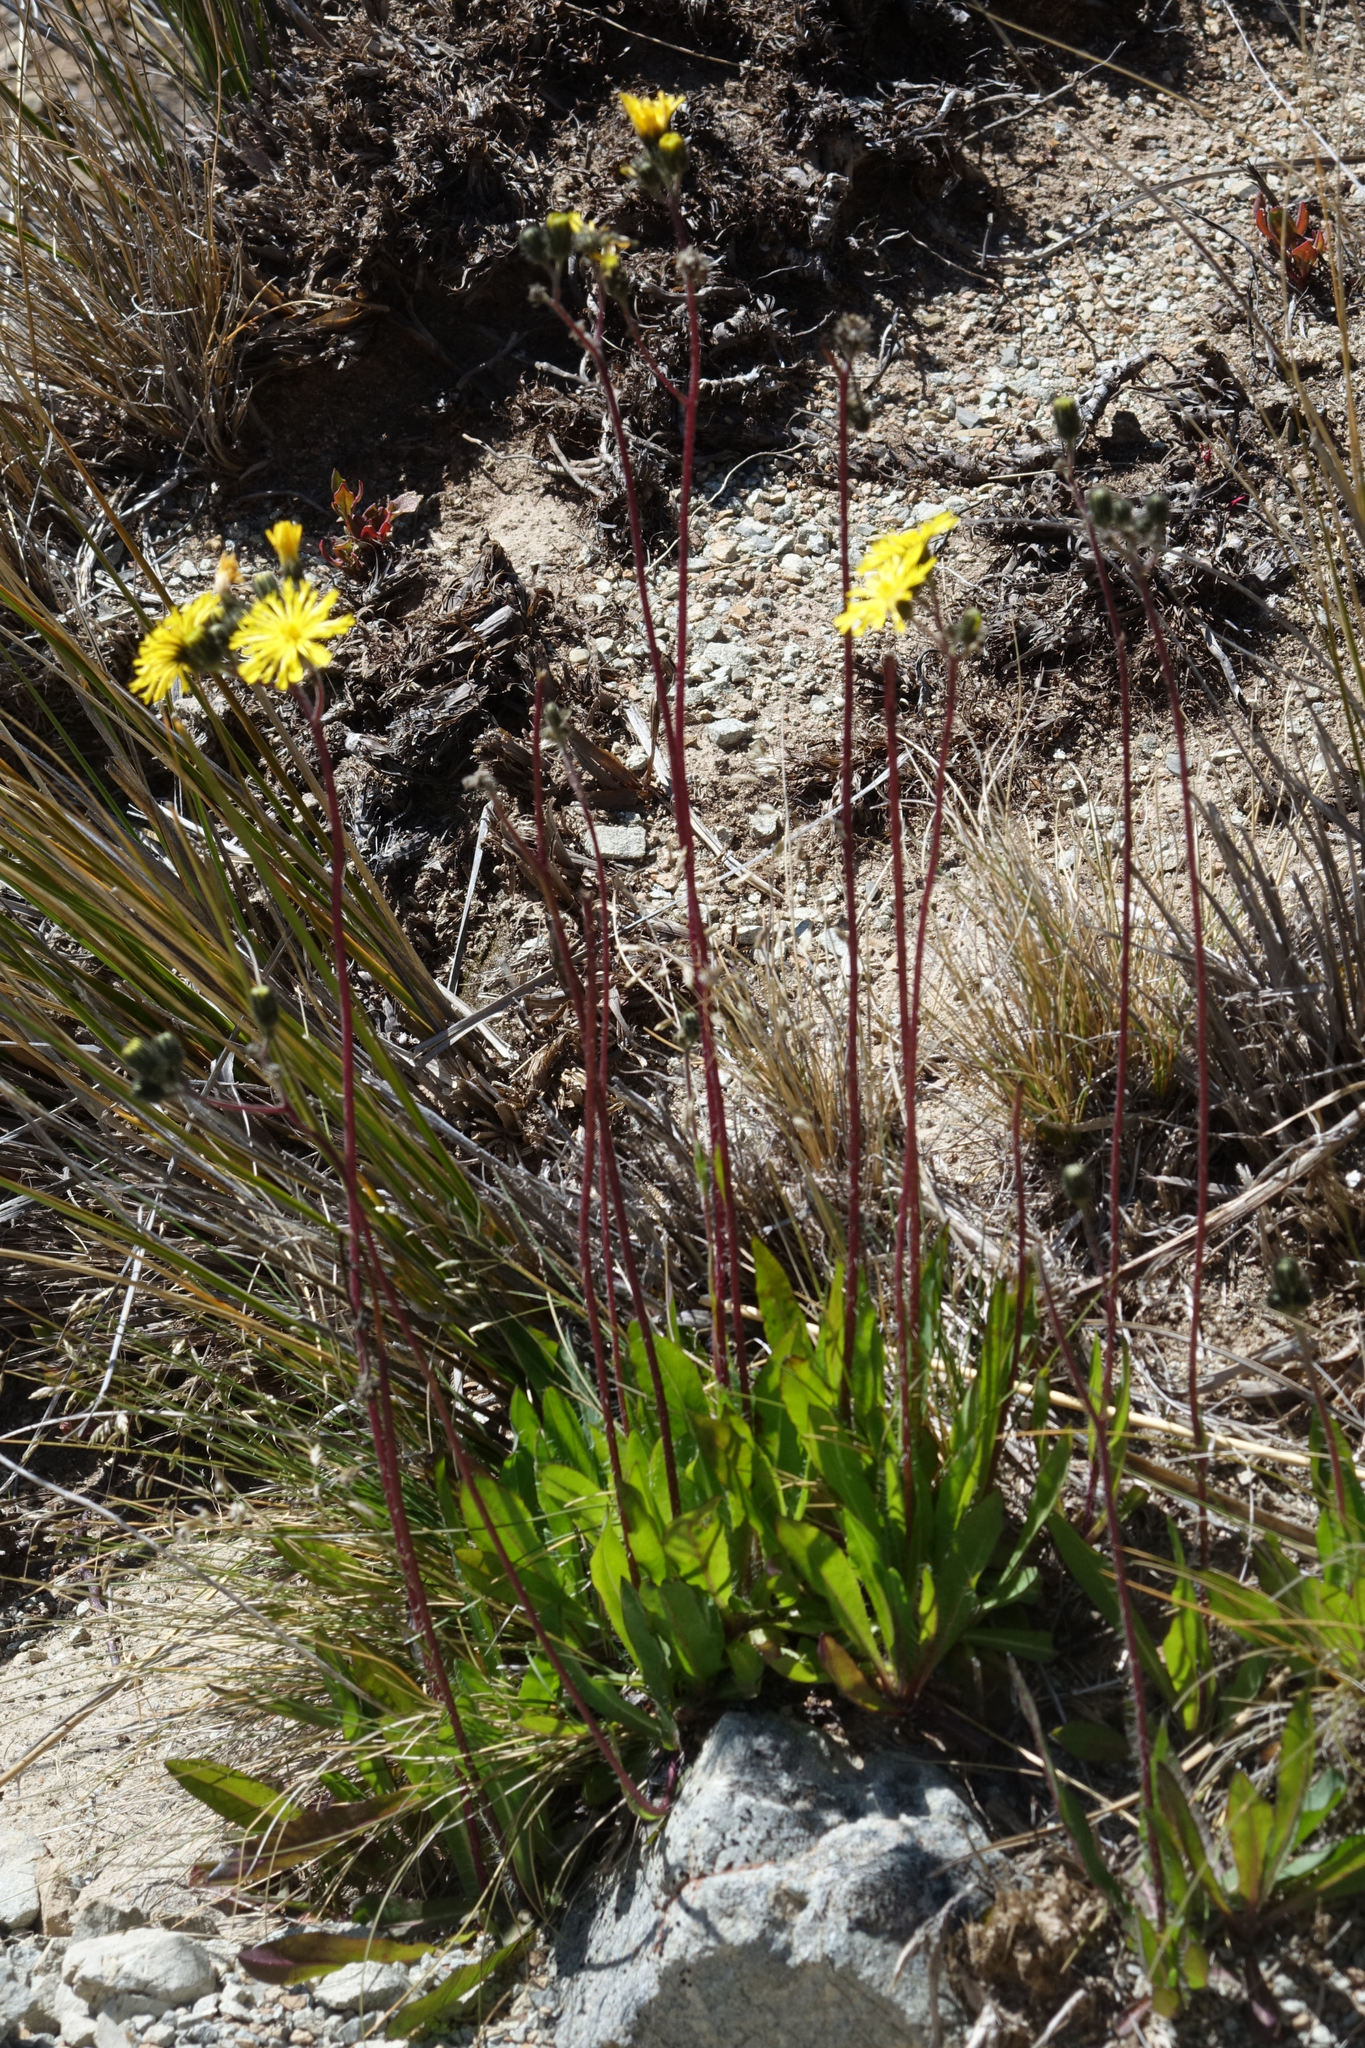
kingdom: Plantae
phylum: Tracheophyta
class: Magnoliopsida
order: Asterales
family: Asteraceae
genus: Pilosella
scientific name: Pilosella piloselloides
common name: Glaucous king-devil
